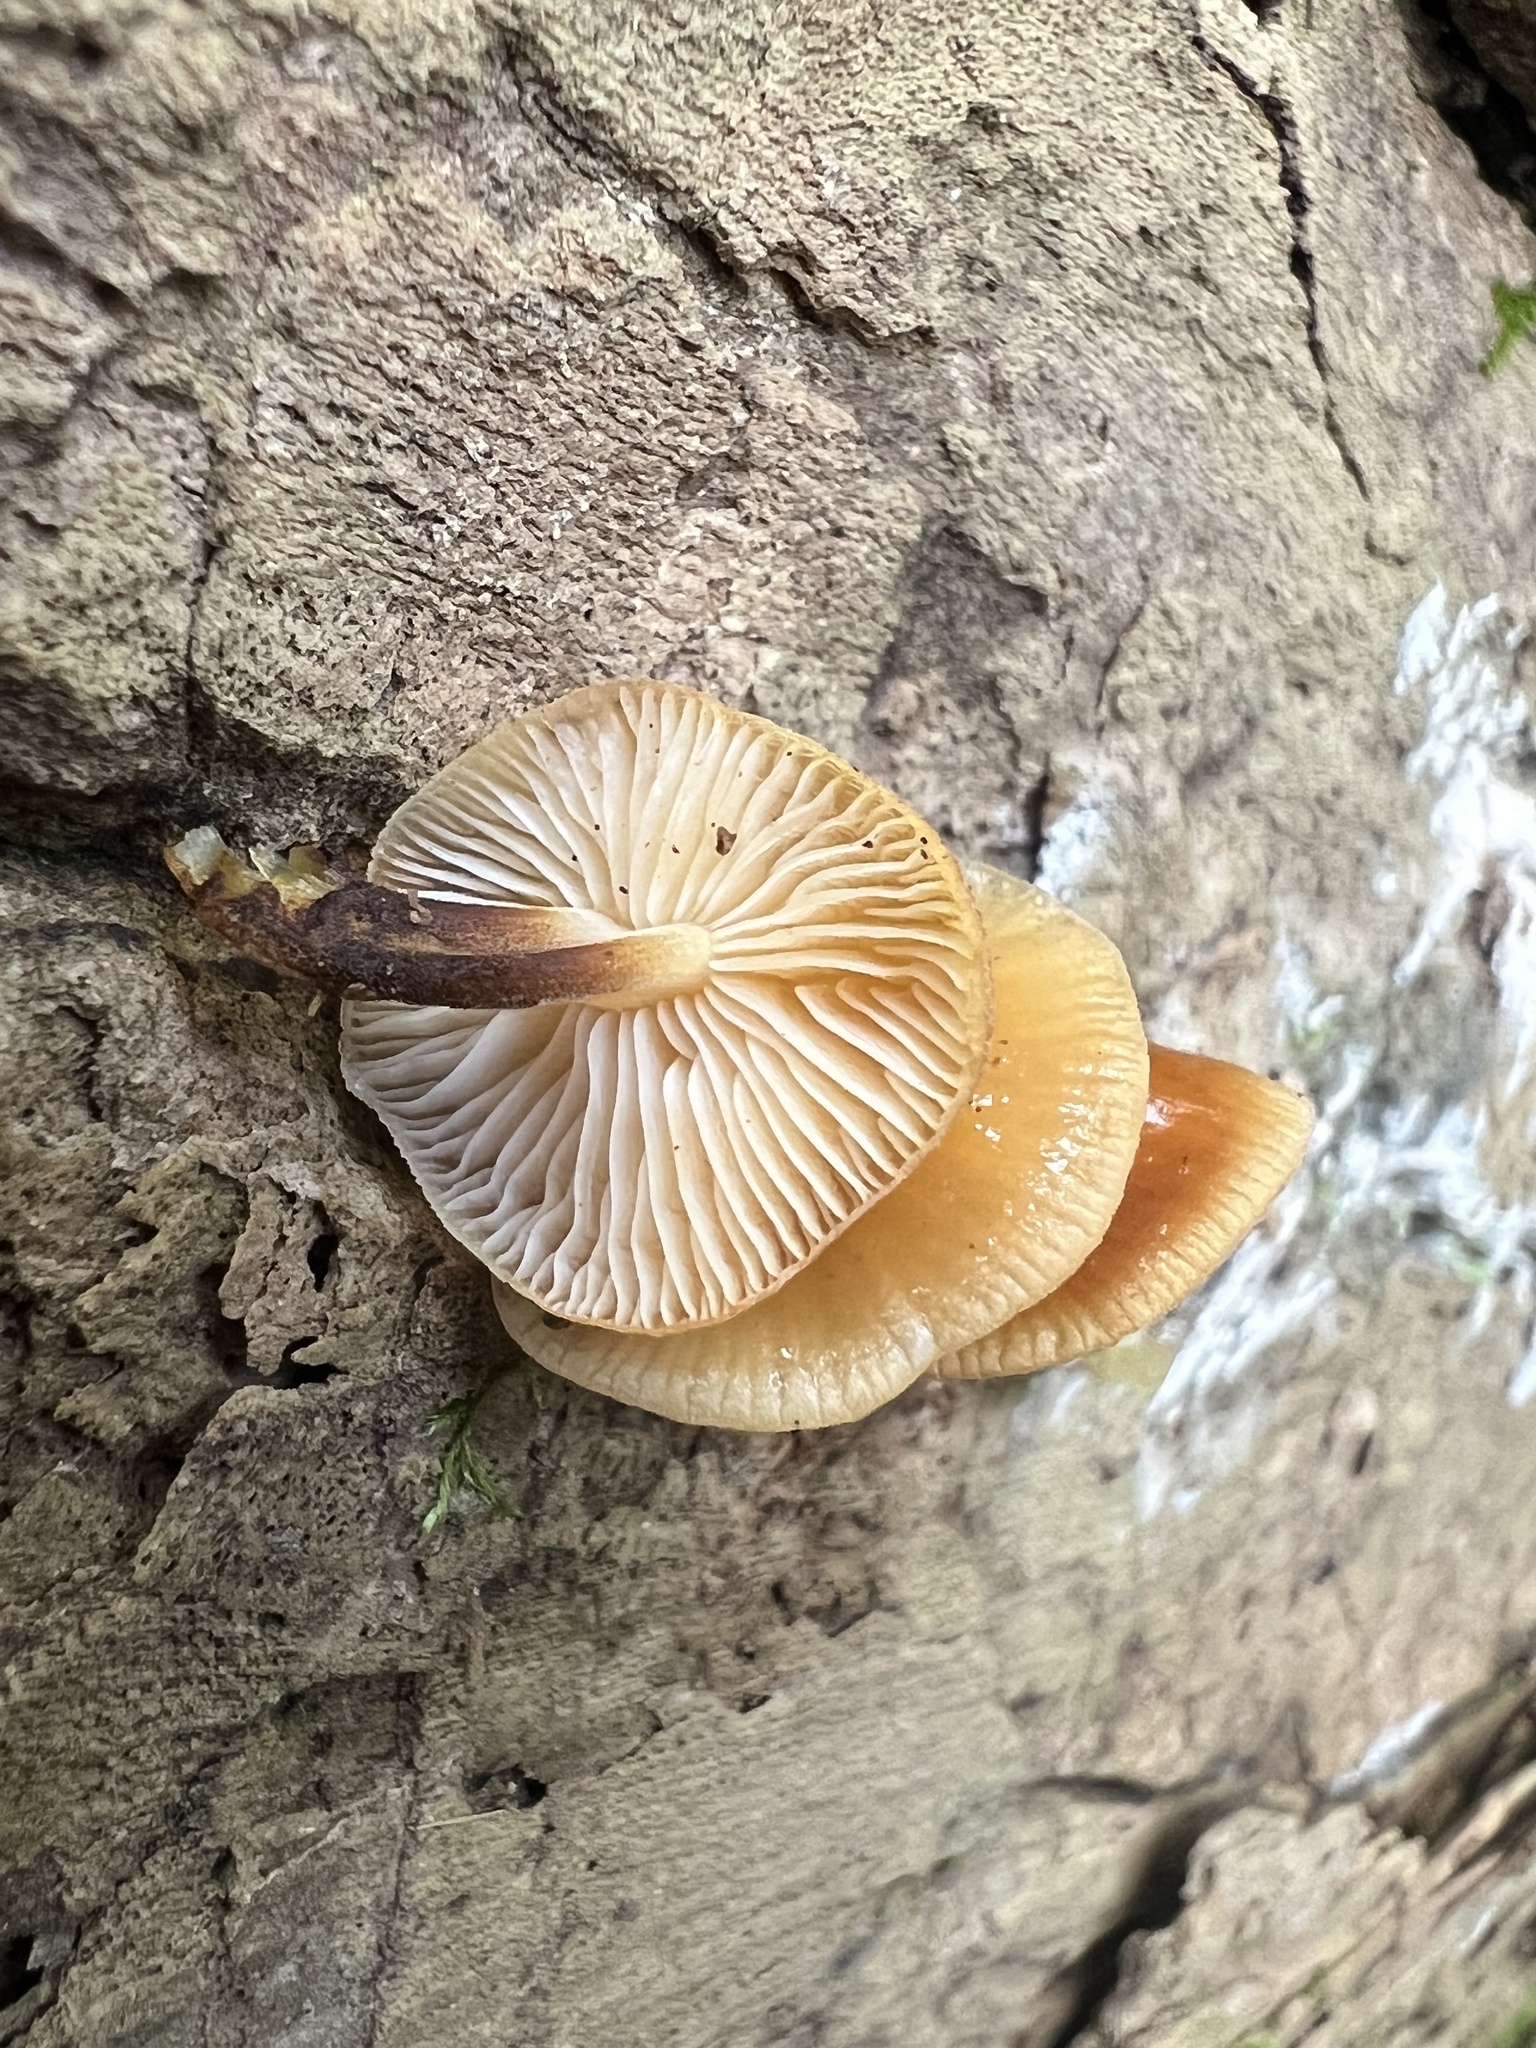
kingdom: Fungi
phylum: Basidiomycota
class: Agaricomycetes
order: Agaricales
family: Physalacriaceae
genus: Flammulina
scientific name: Flammulina velutipes
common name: Velvet shank
